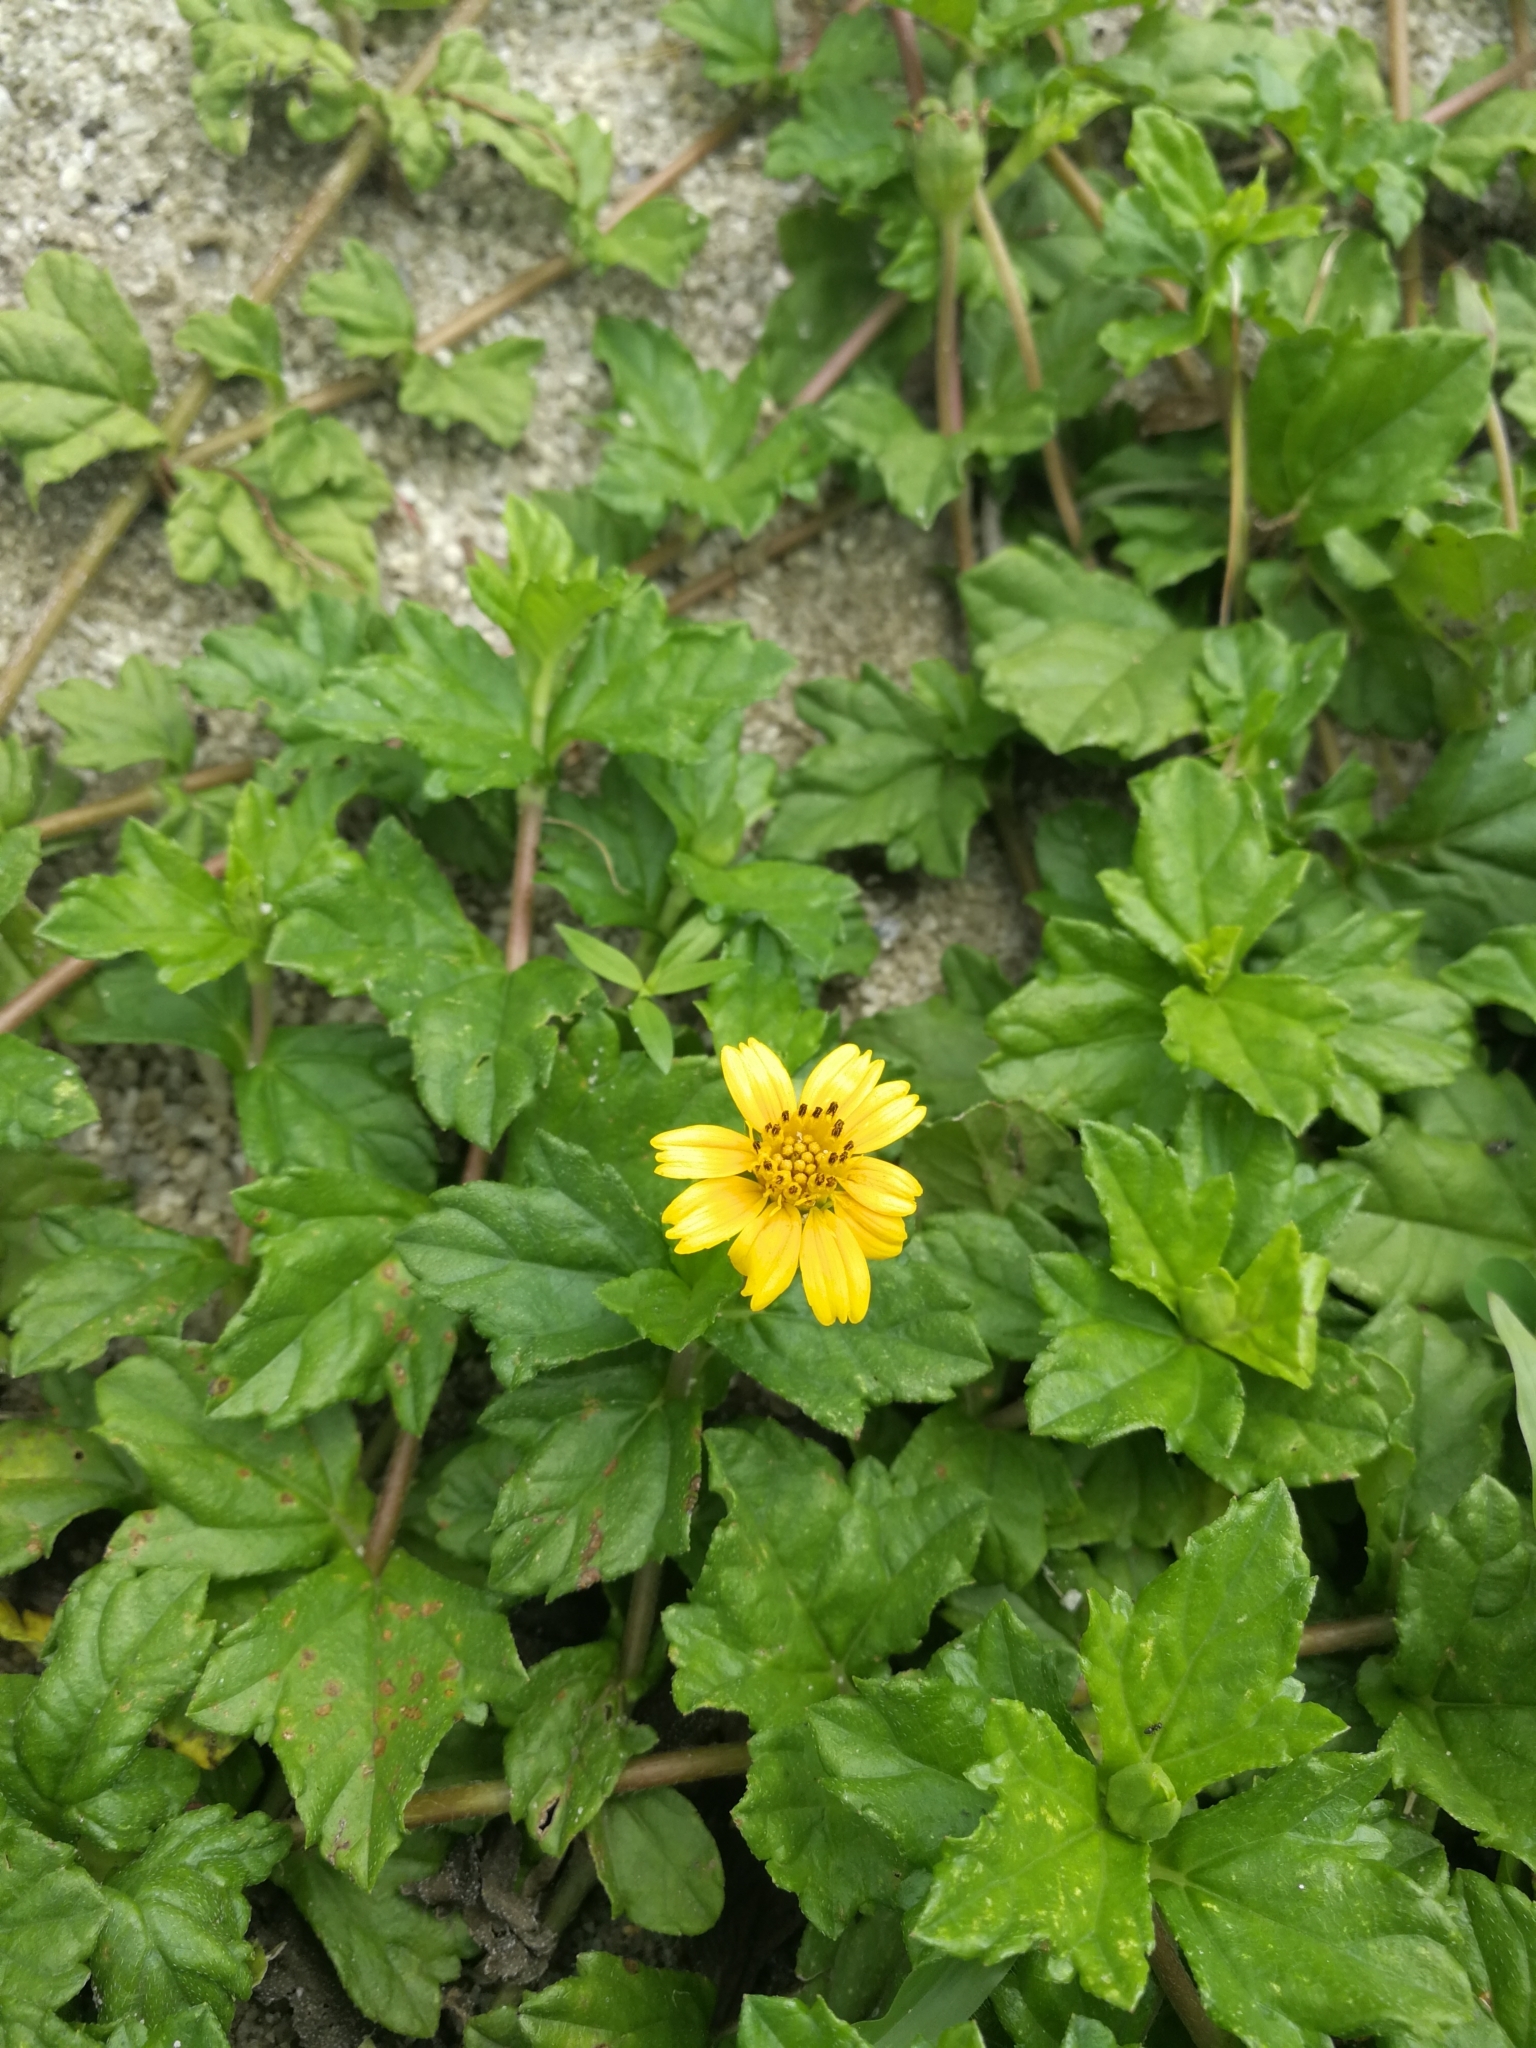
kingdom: Plantae
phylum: Tracheophyta
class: Magnoliopsida
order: Asterales
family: Asteraceae
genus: Sphagneticola
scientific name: Sphagneticola trilobata
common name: Bay biscayne creeping-oxeye
